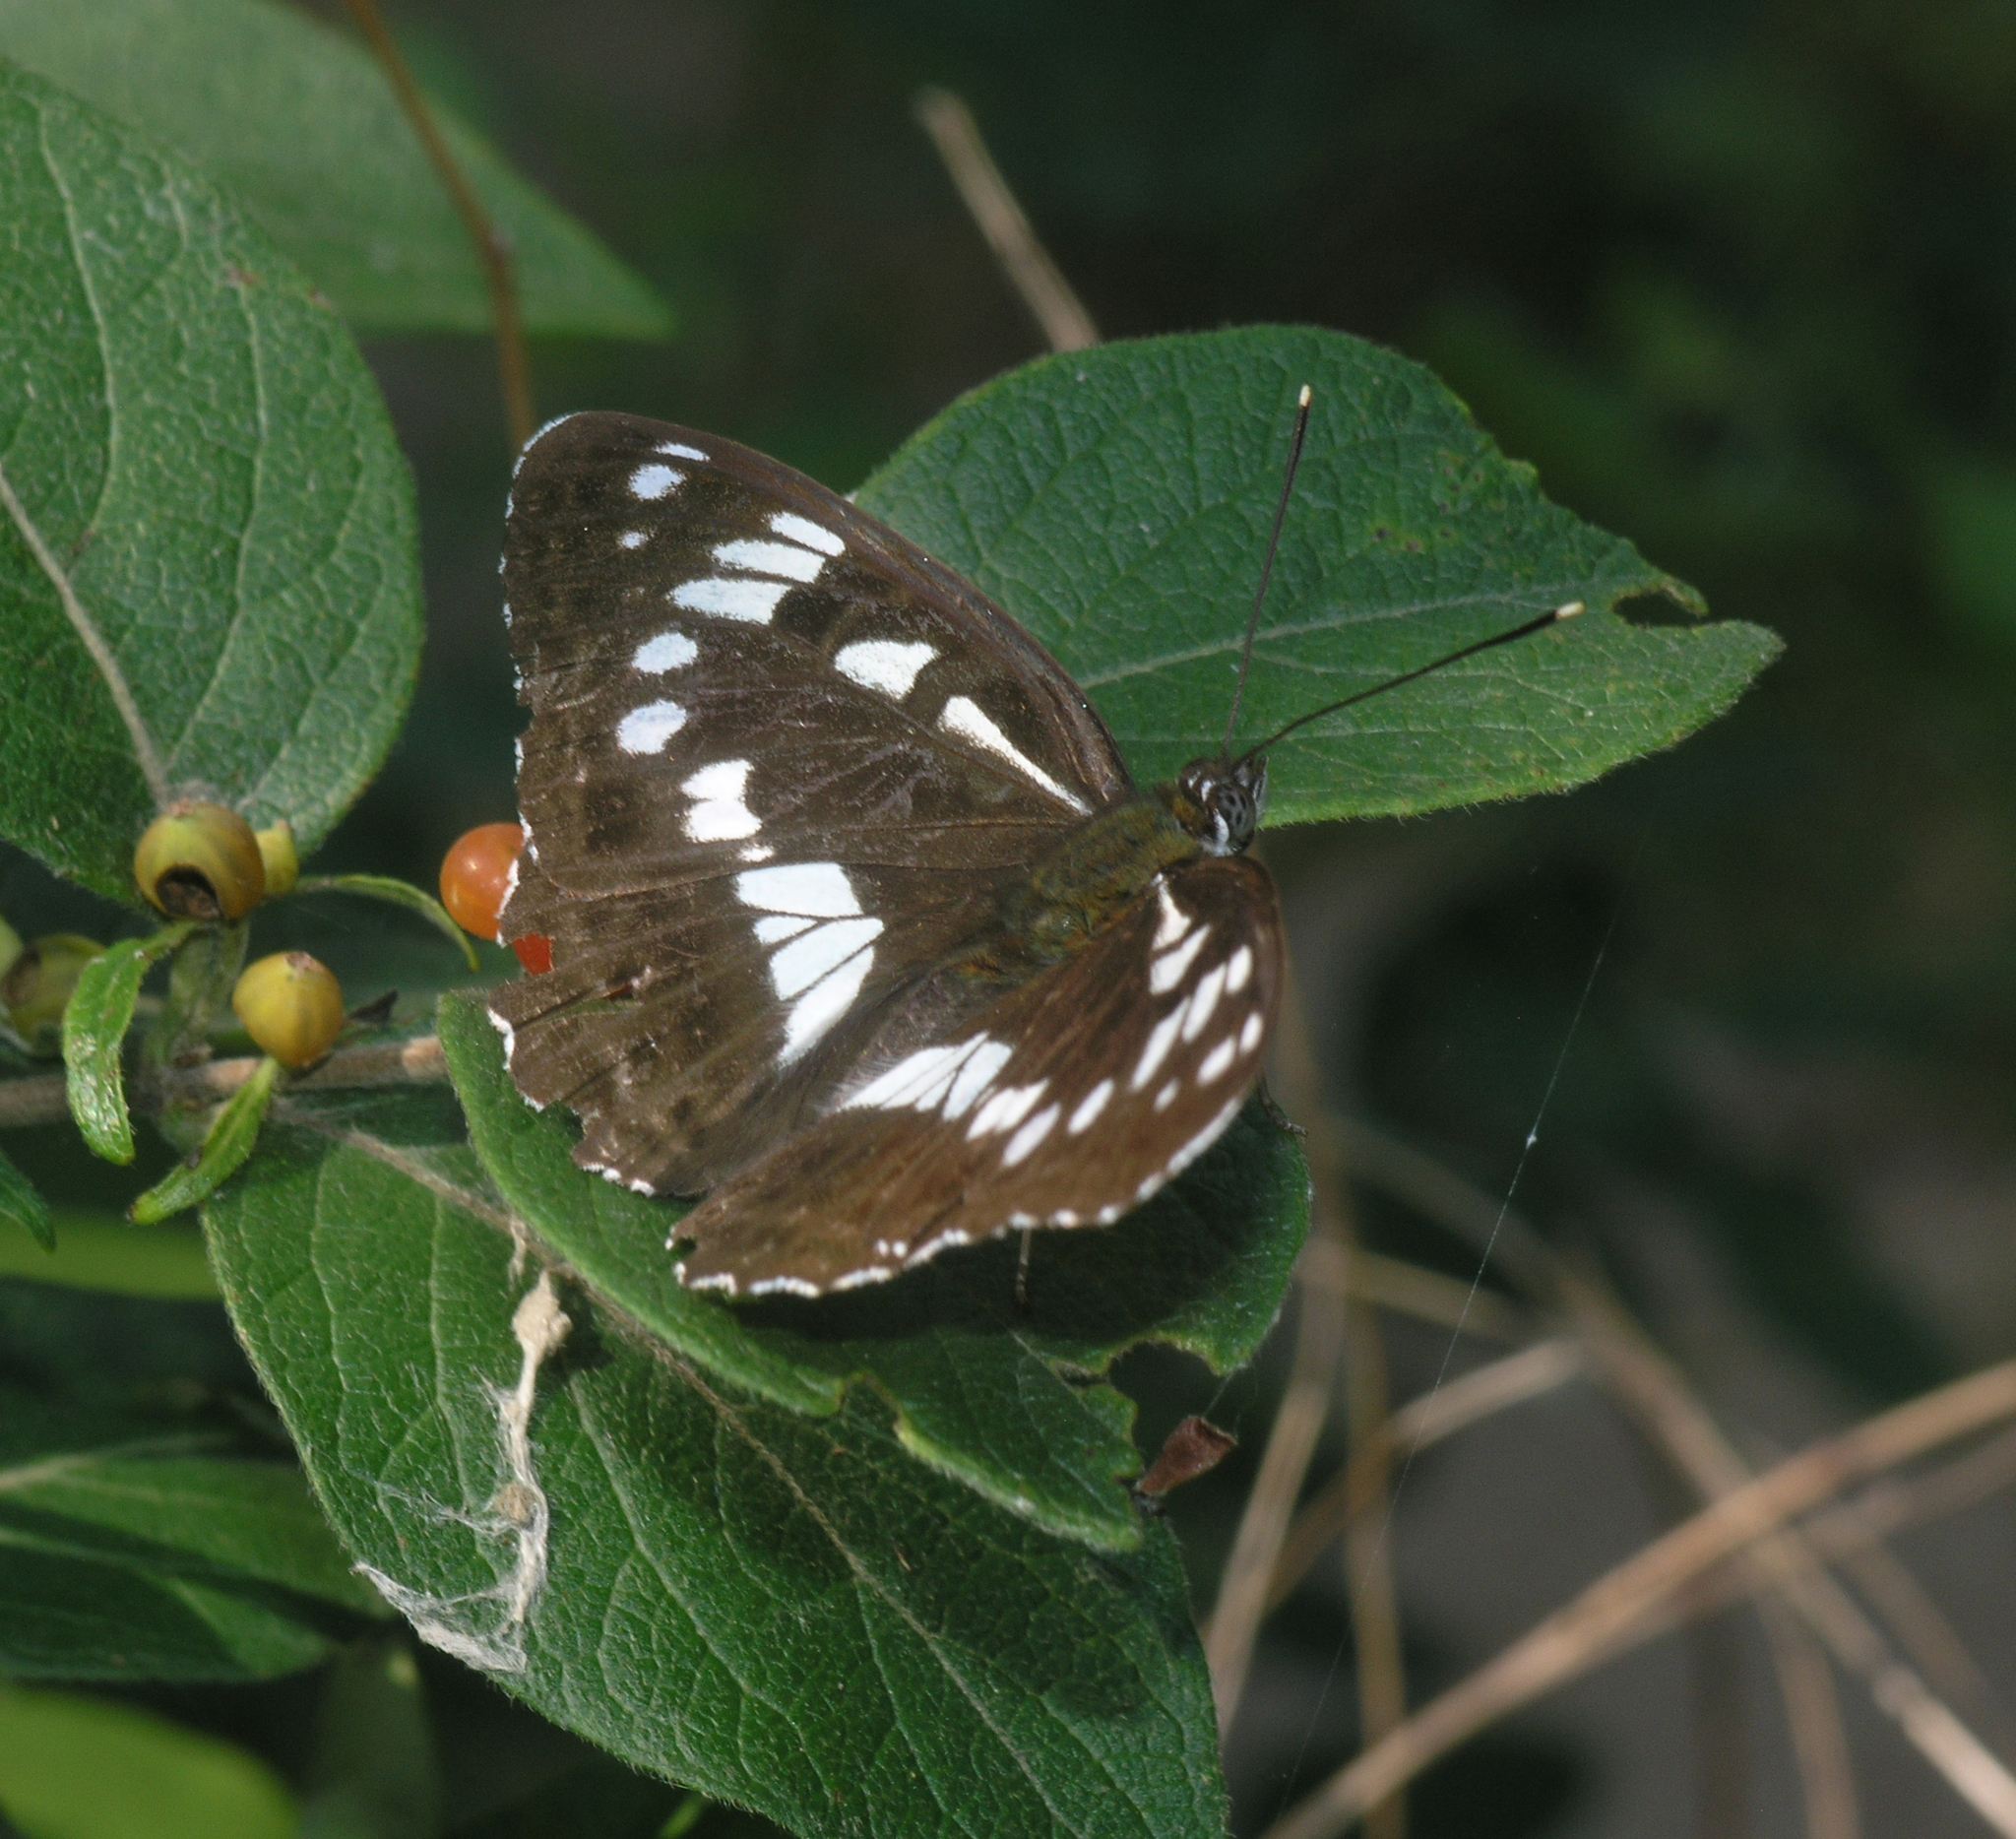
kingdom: Animalia
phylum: Arthropoda
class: Insecta
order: Lepidoptera
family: Nymphalidae
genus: Limenitis
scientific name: Limenitis helmanni
